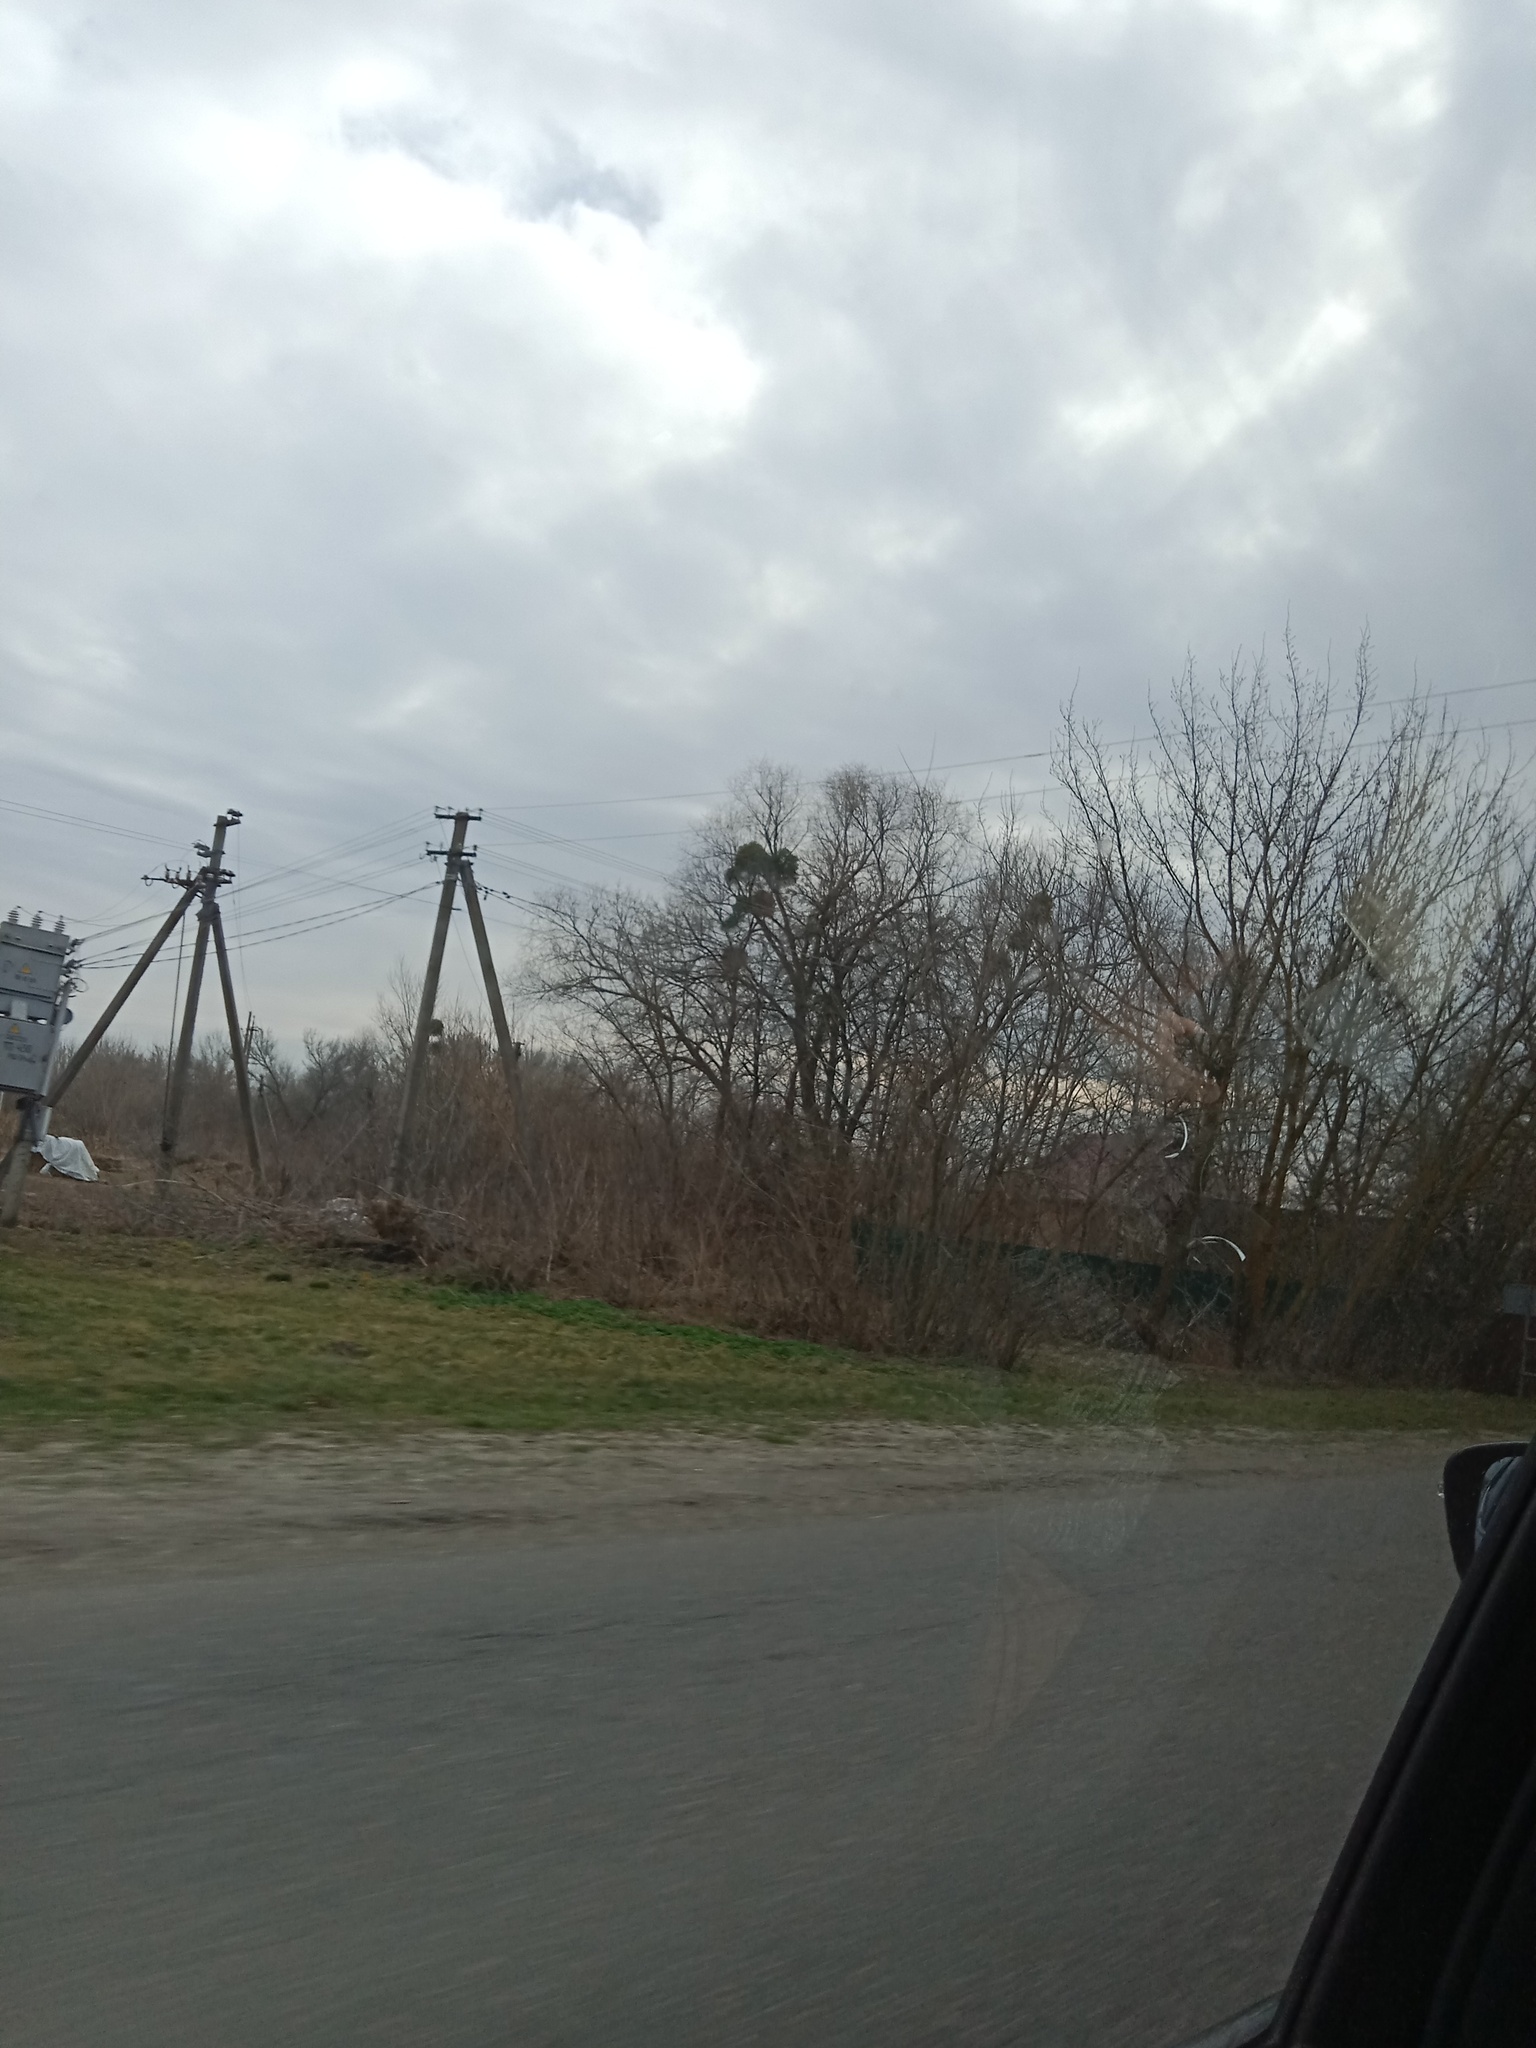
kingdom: Plantae
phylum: Tracheophyta
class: Magnoliopsida
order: Santalales
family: Viscaceae
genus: Viscum
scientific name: Viscum album
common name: Mistletoe
